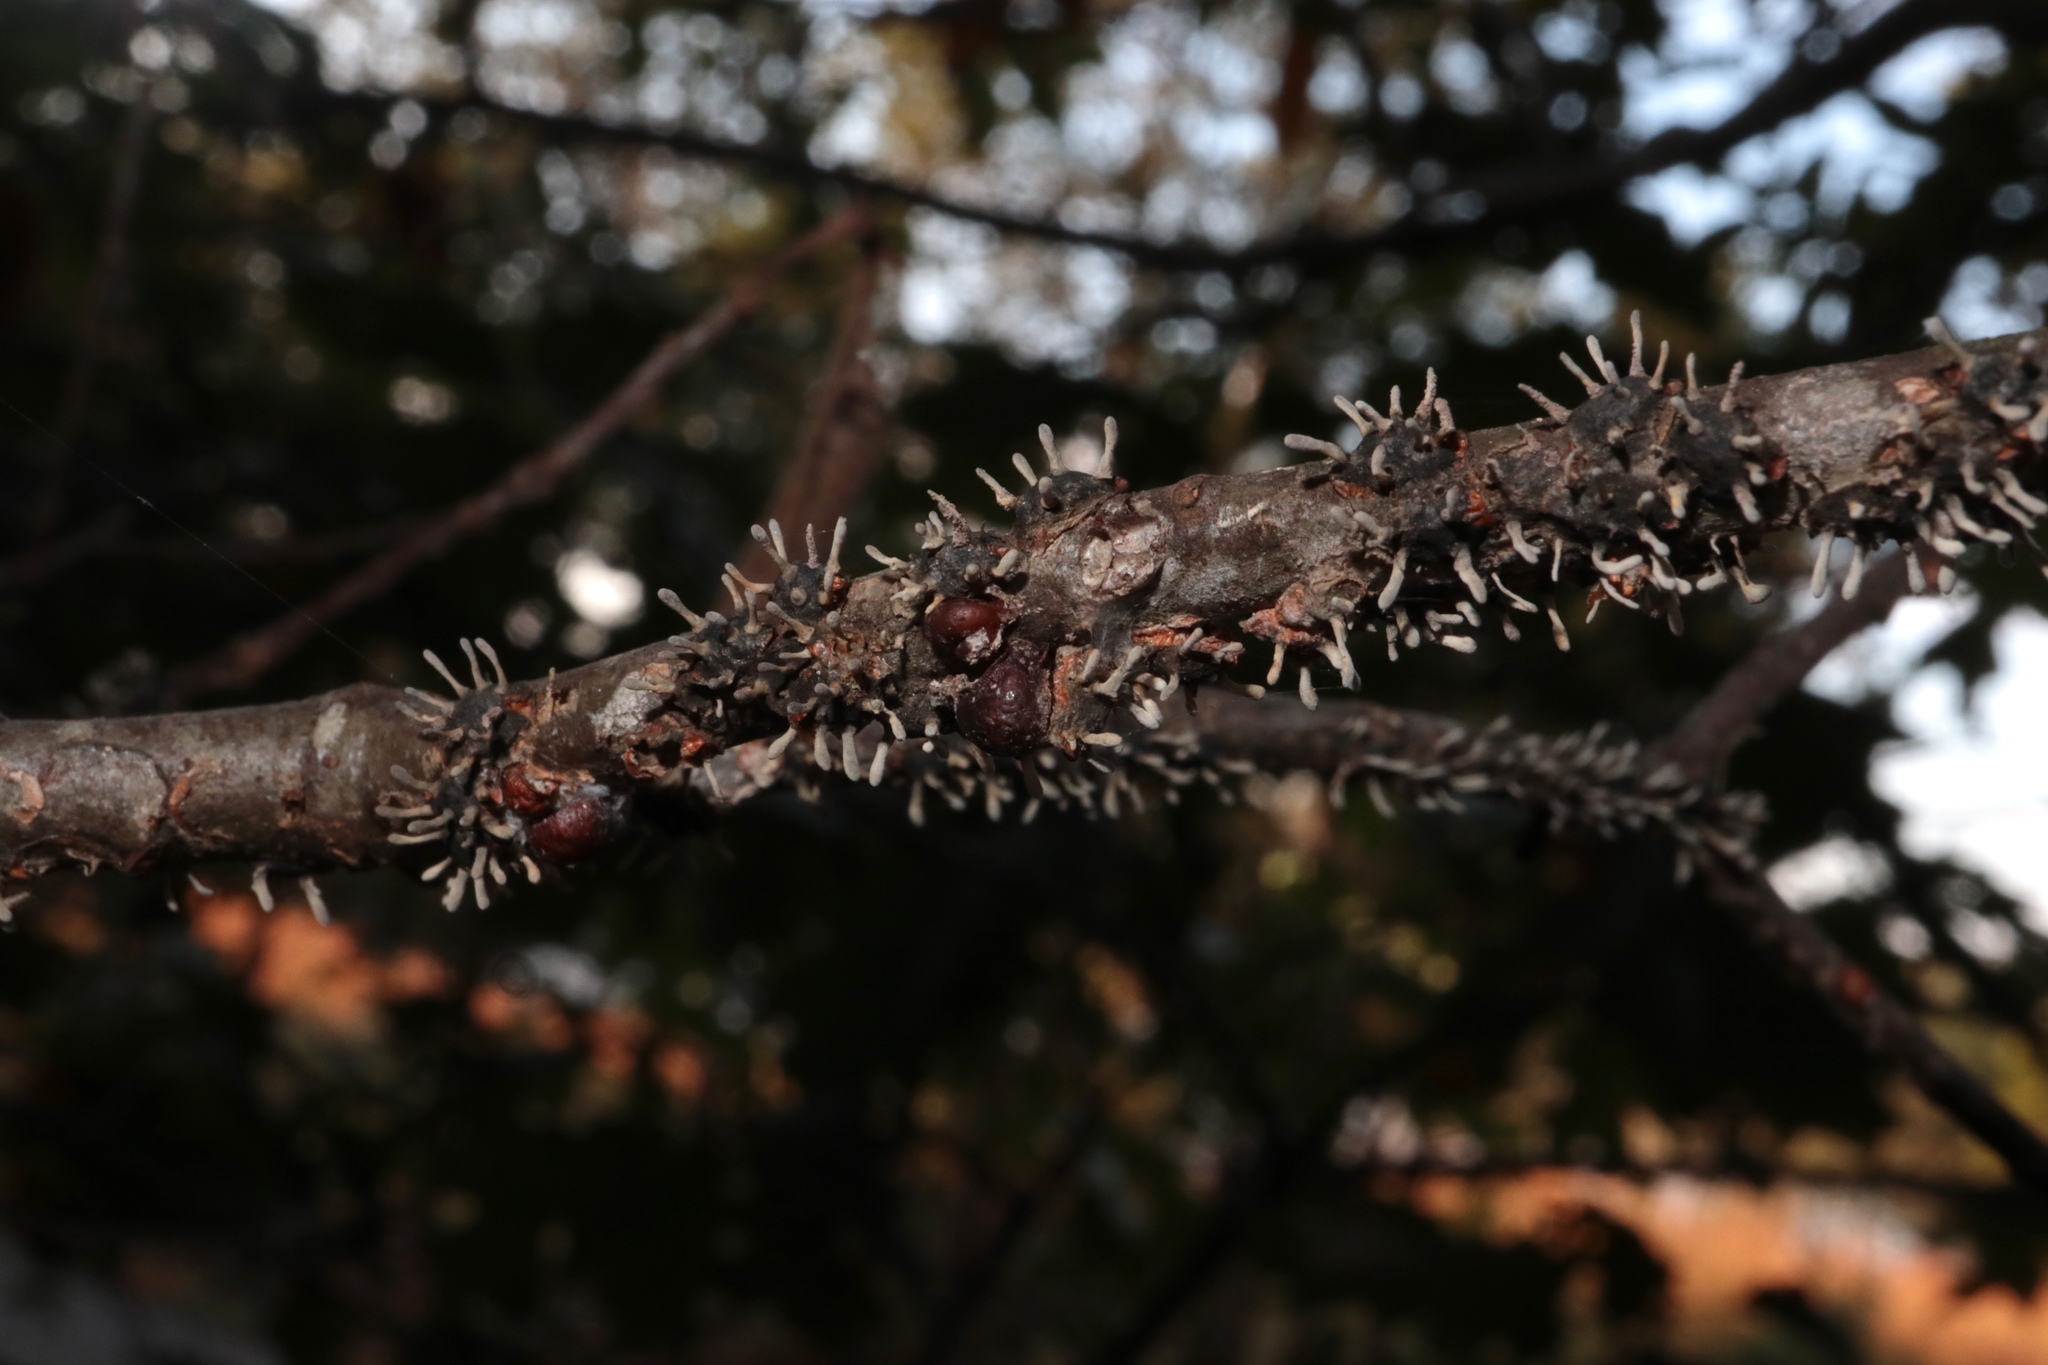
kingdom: Fungi
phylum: Ascomycota
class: Sordariomycetes
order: Hypocreales
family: Ophiocordycipitaceae
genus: Ophiocordyceps
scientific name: Ophiocordyceps clavulata
